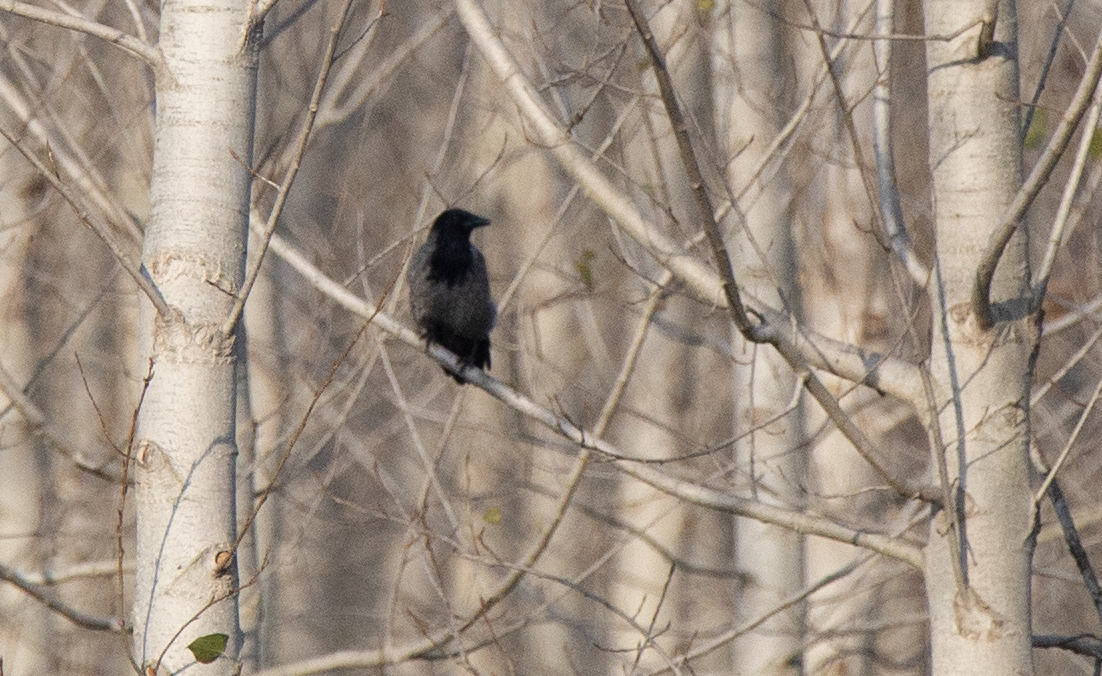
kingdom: Animalia
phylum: Chordata
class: Aves
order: Passeriformes
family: Corvidae
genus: Corvus
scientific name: Corvus cornix
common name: Hooded crow
